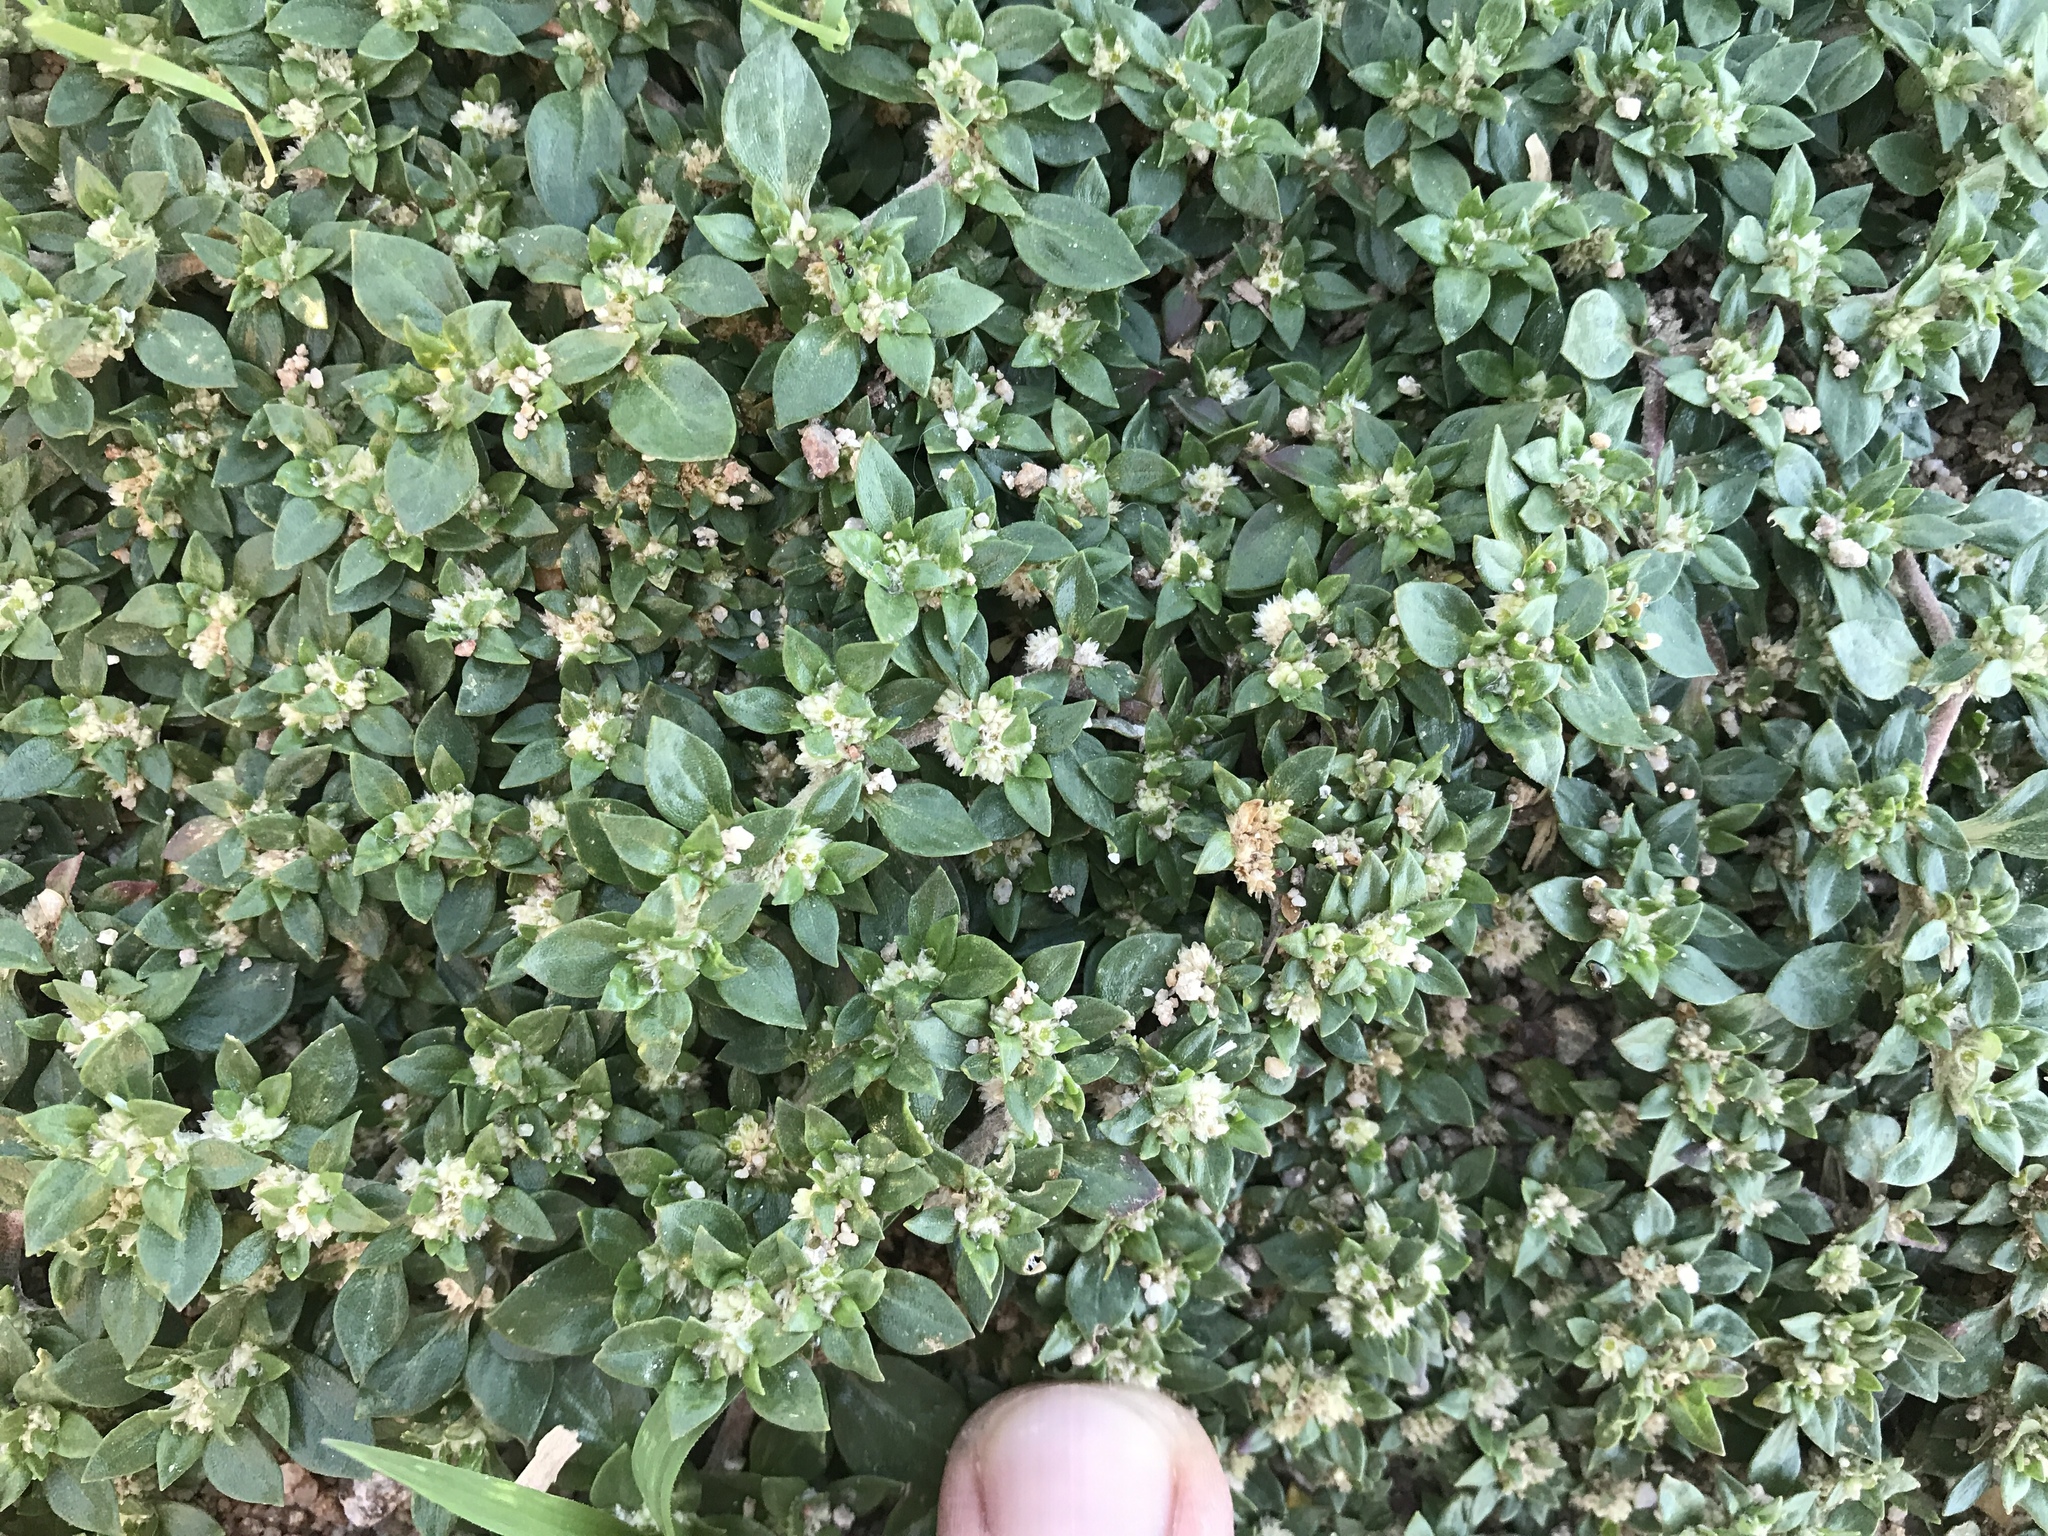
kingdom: Plantae
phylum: Tracheophyta
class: Magnoliopsida
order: Caryophyllales
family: Amaranthaceae
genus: Guilleminea
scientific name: Guilleminea densa
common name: Small matweed
